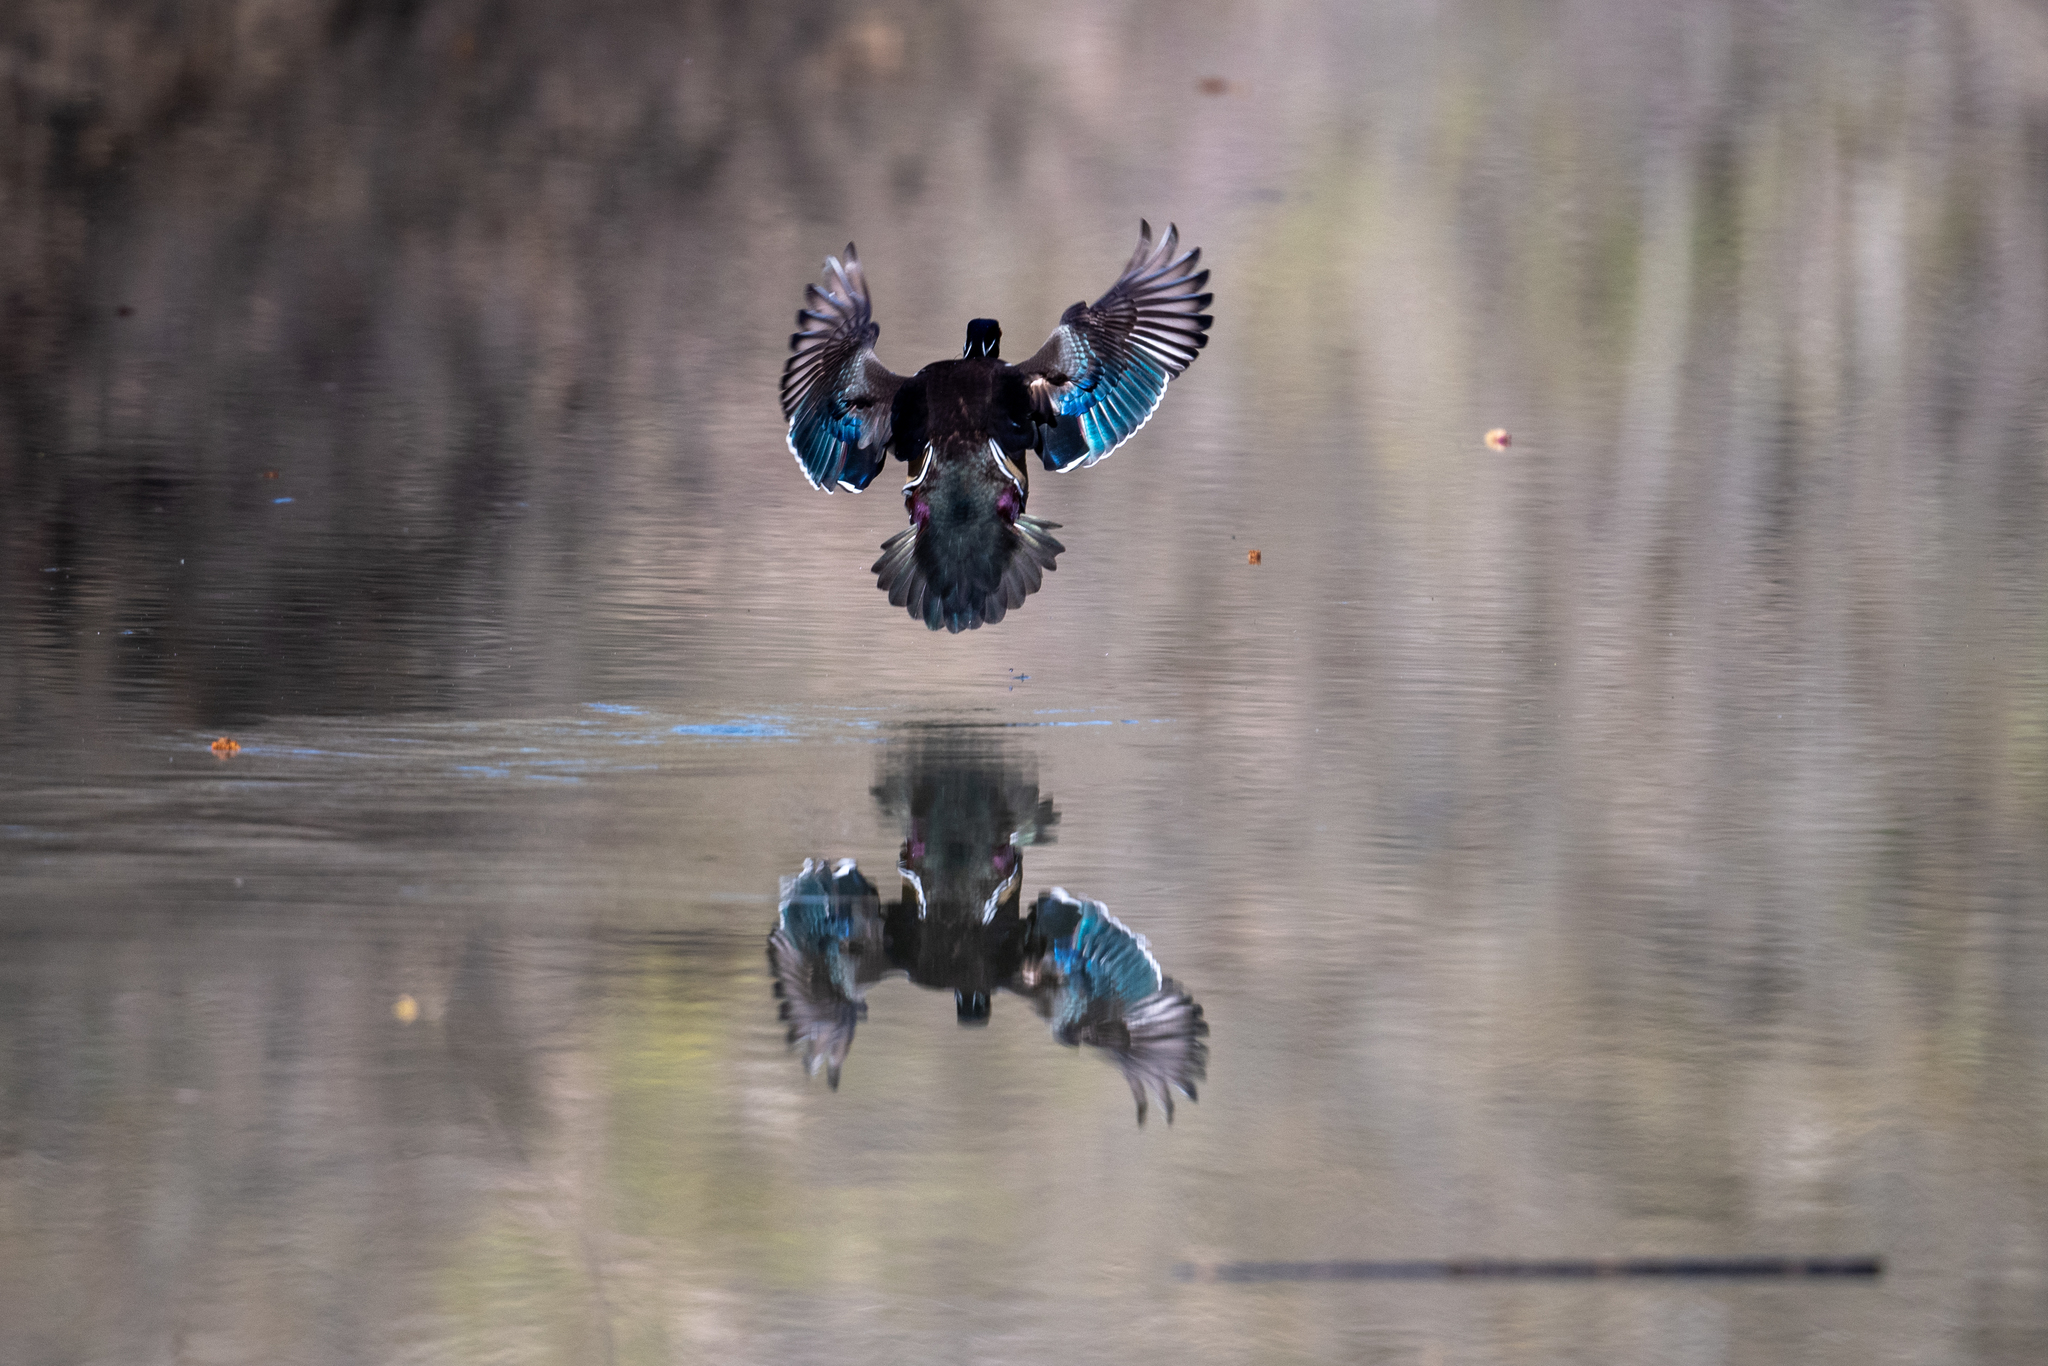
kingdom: Animalia
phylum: Chordata
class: Aves
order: Anseriformes
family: Anatidae
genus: Aix
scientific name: Aix sponsa
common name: Wood duck
